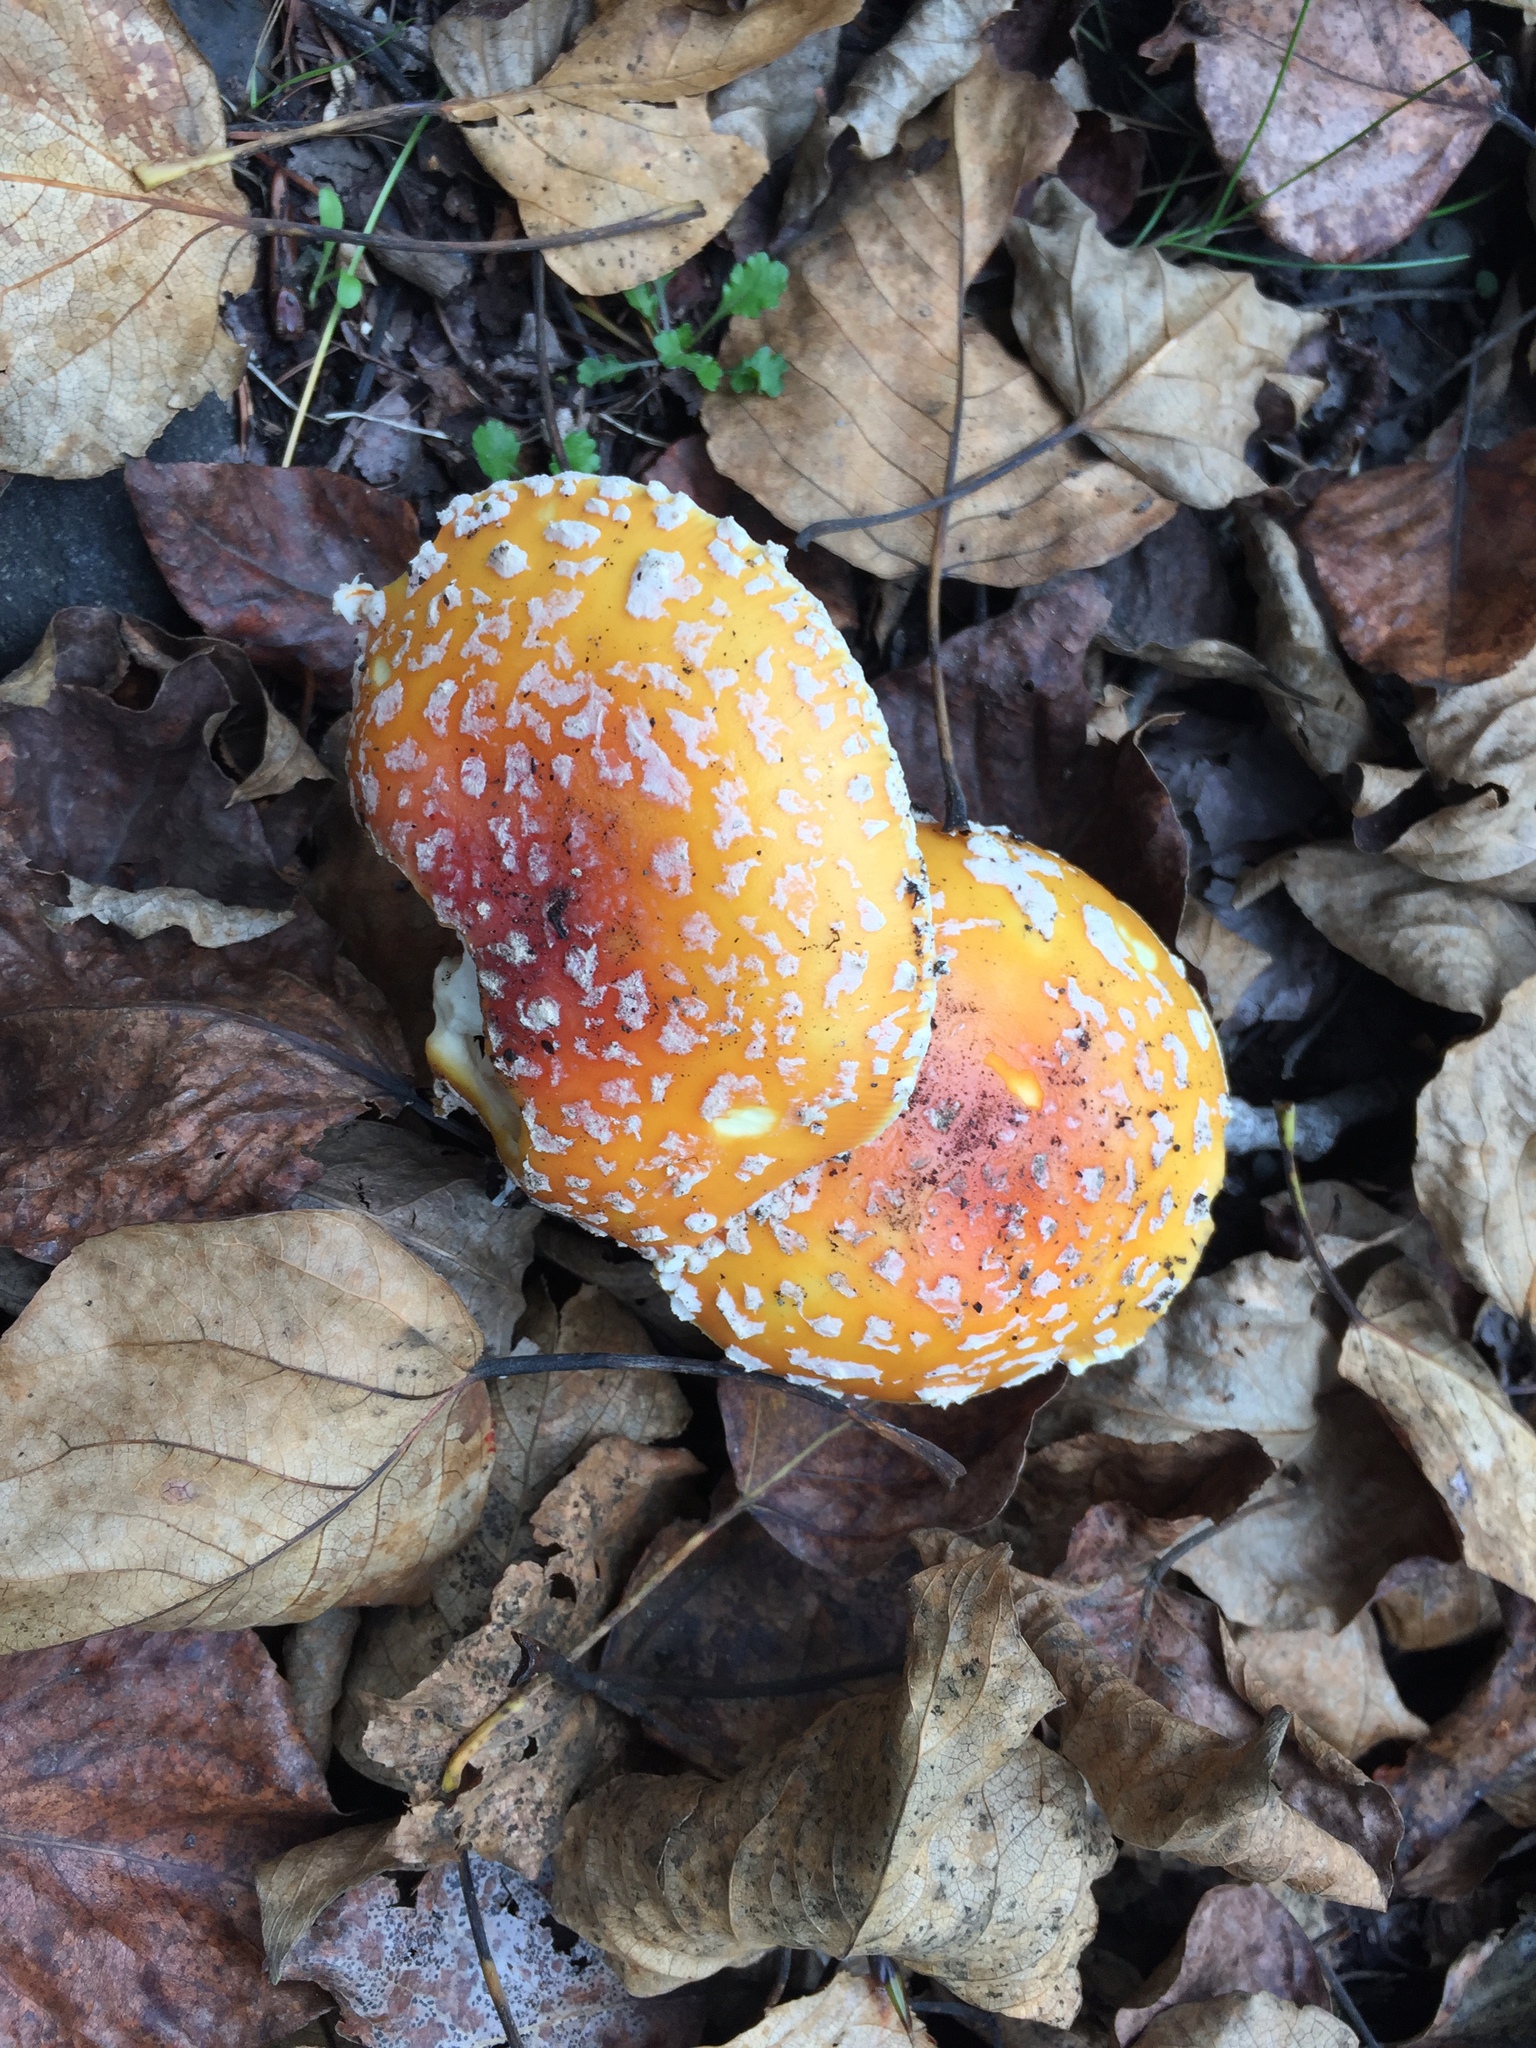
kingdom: Fungi
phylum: Basidiomycota
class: Agaricomycetes
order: Agaricales
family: Amanitaceae
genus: Amanita
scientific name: Amanita muscaria
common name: Fly agaric
